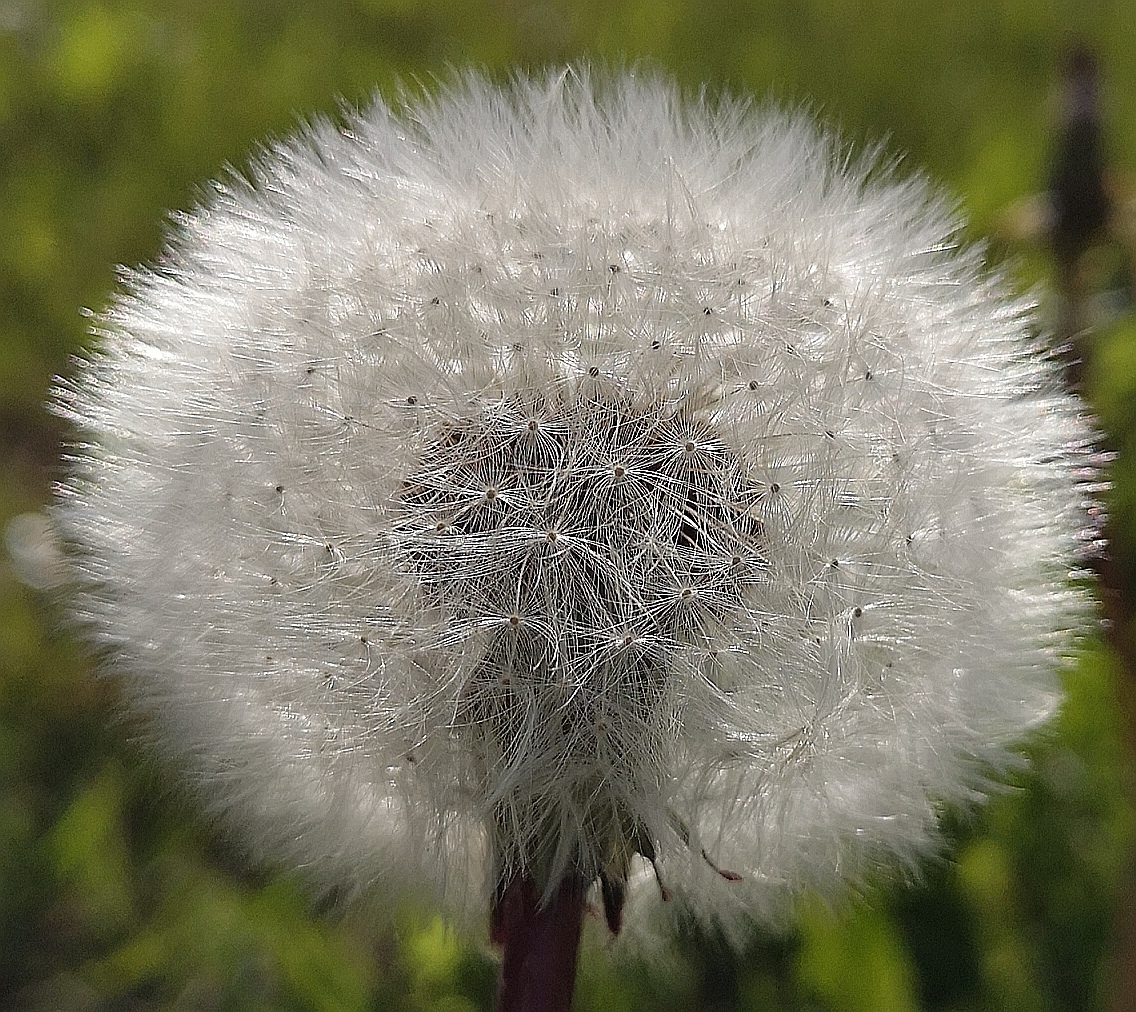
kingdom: Plantae
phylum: Tracheophyta
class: Magnoliopsida
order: Asterales
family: Asteraceae
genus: Taraxacum
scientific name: Taraxacum
